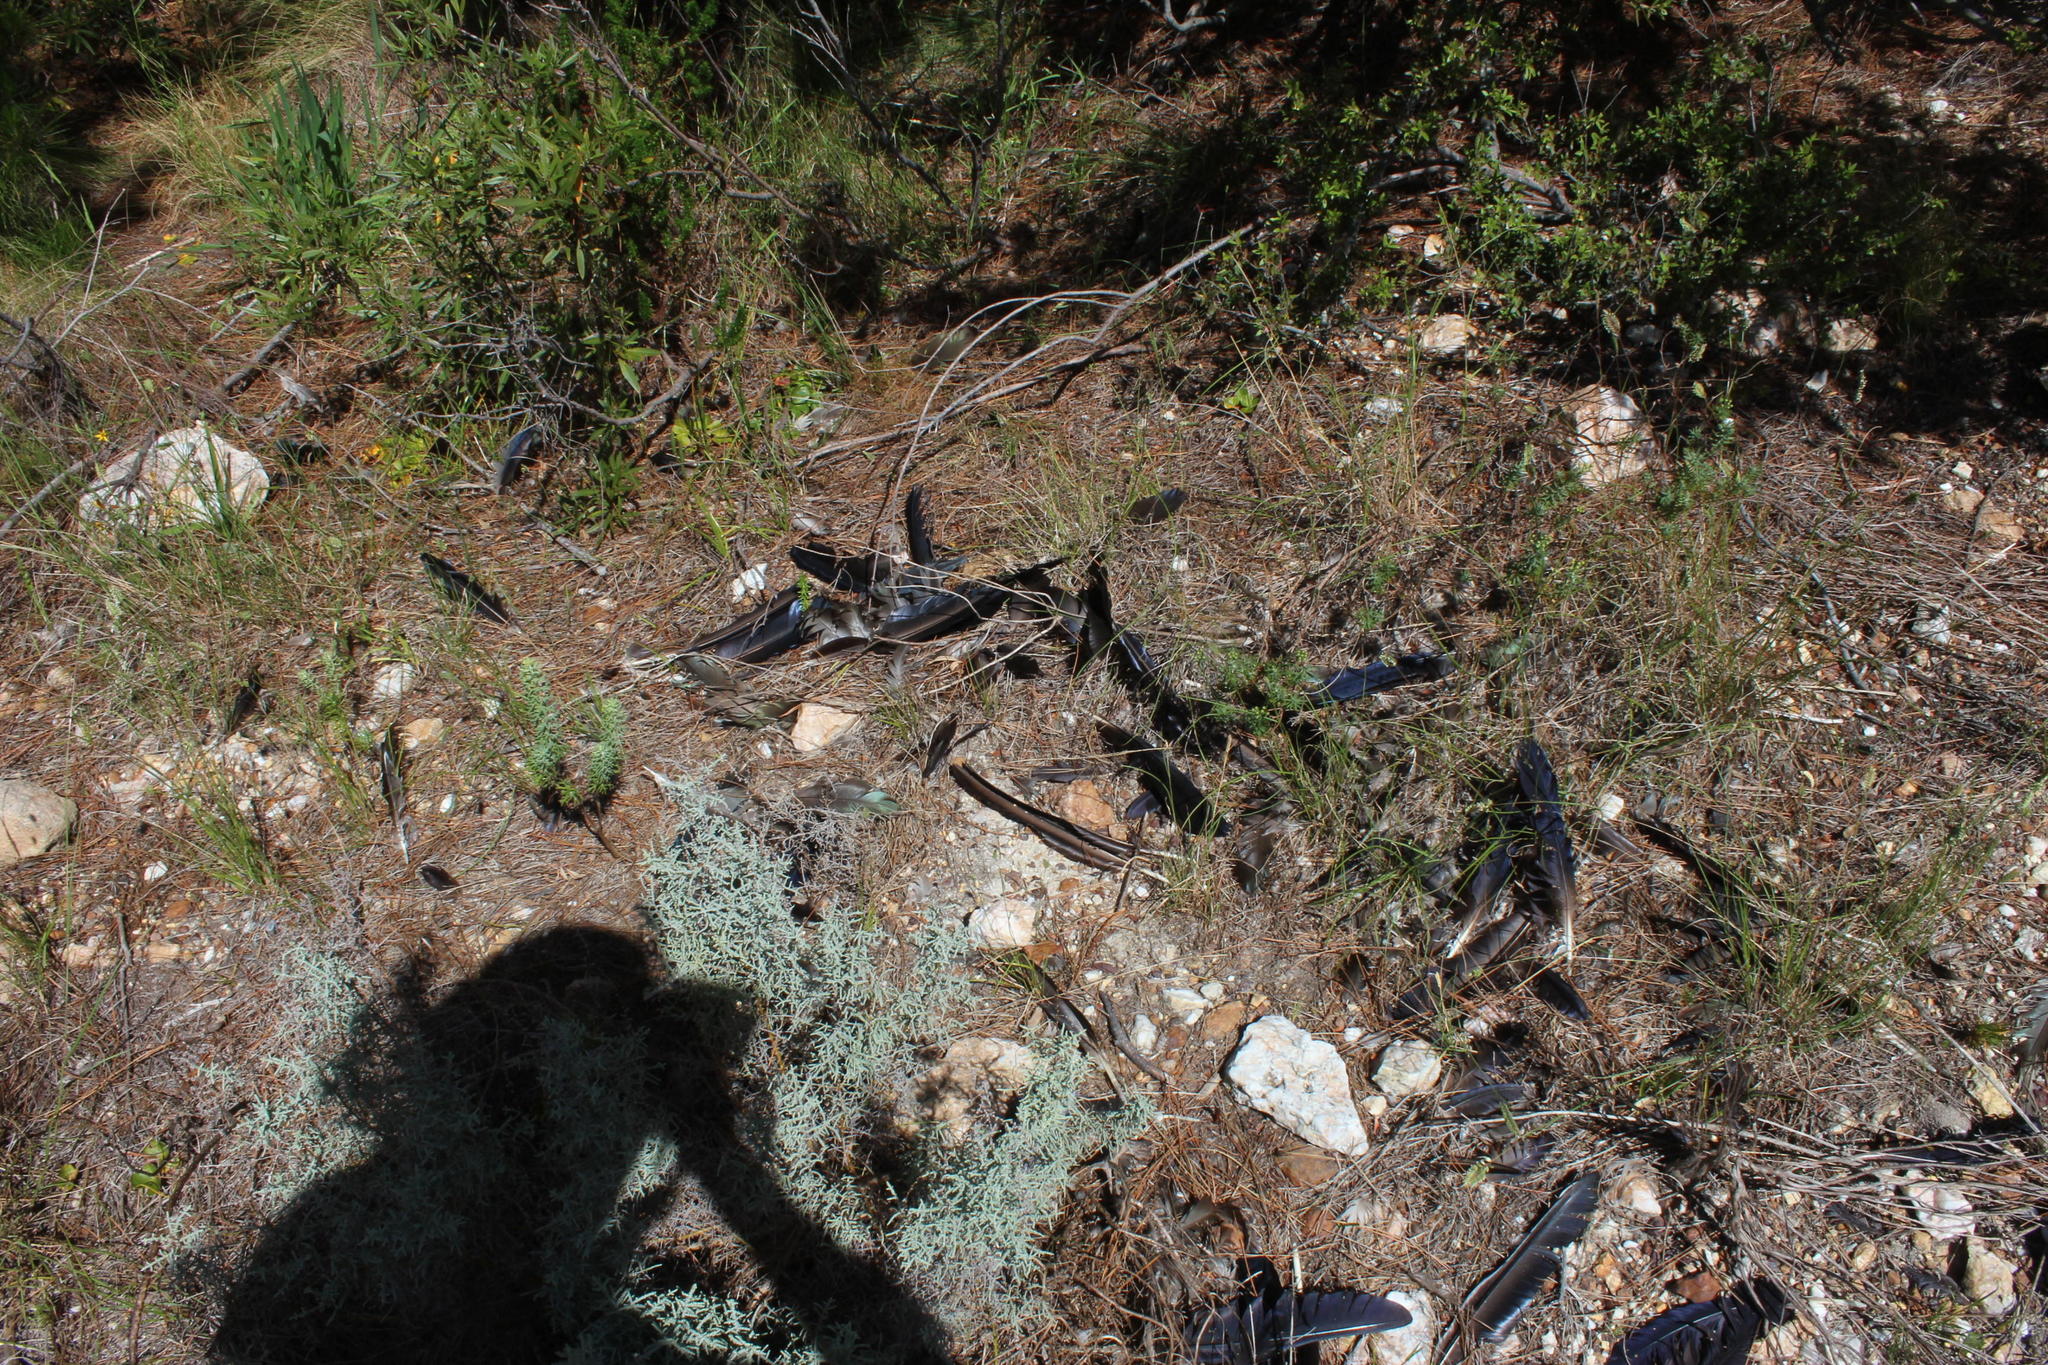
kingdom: Animalia
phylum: Chordata
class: Aves
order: Pelecaniformes
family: Threskiornithidae
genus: Bostrychia
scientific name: Bostrychia hagedash
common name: Hadada ibis
